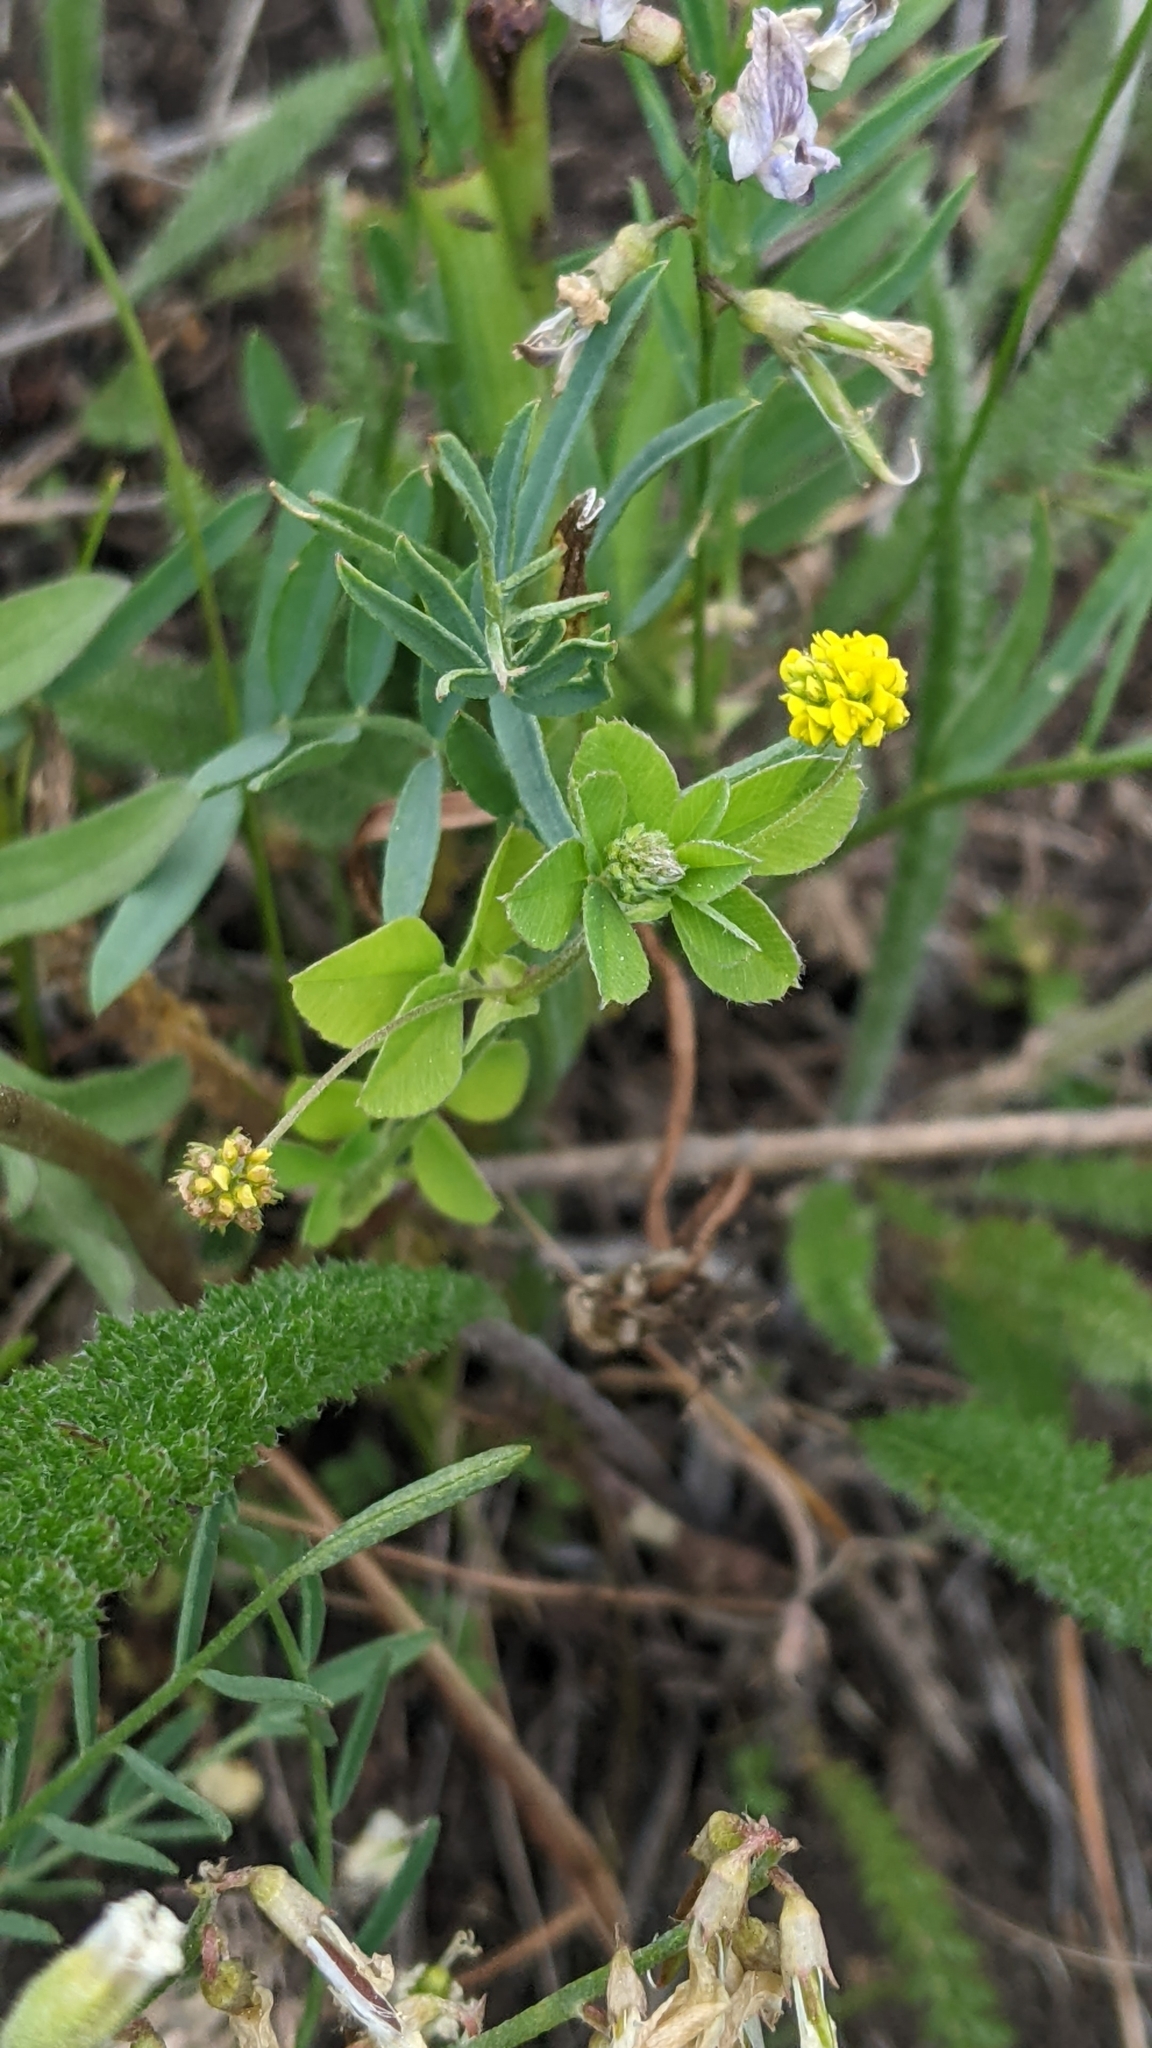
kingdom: Plantae
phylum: Tracheophyta
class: Magnoliopsida
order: Fabales
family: Fabaceae
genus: Medicago
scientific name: Medicago lupulina
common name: Black medick
